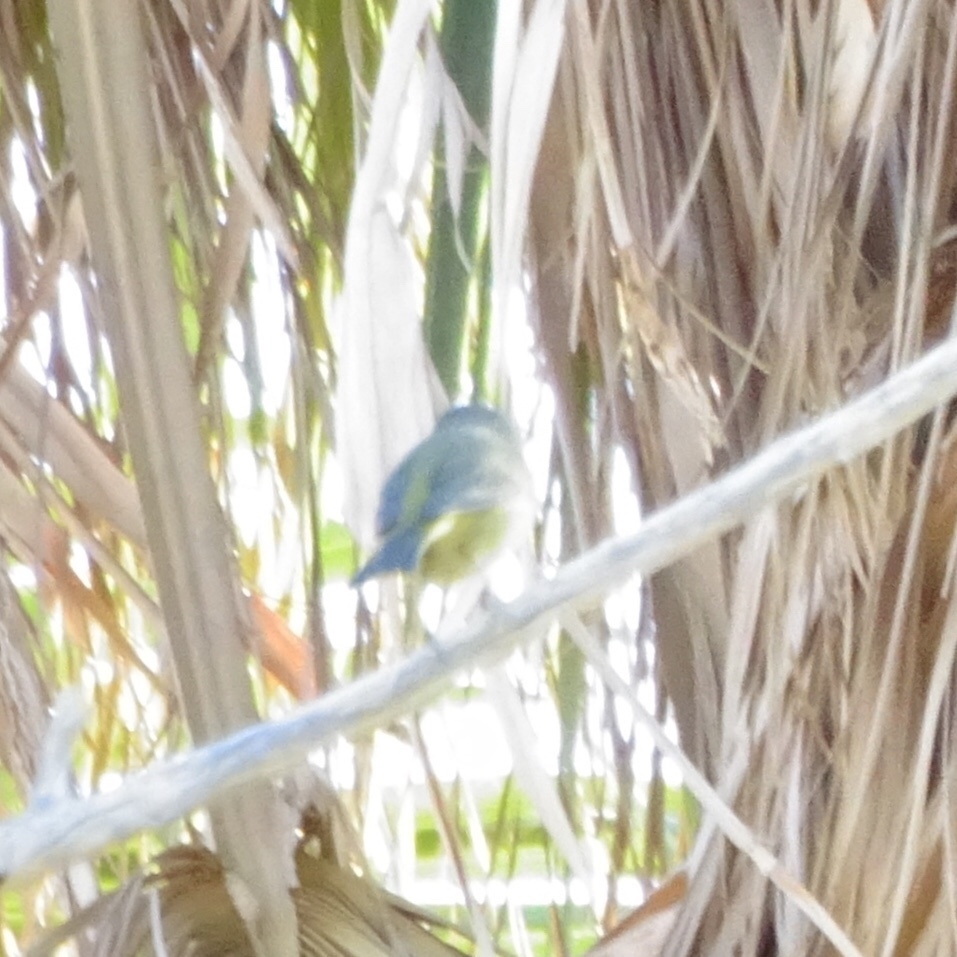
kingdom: Animalia
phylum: Chordata
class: Aves
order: Passeriformes
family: Parulidae
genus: Leiothlypis
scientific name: Leiothlypis celata
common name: Orange-crowned warbler
